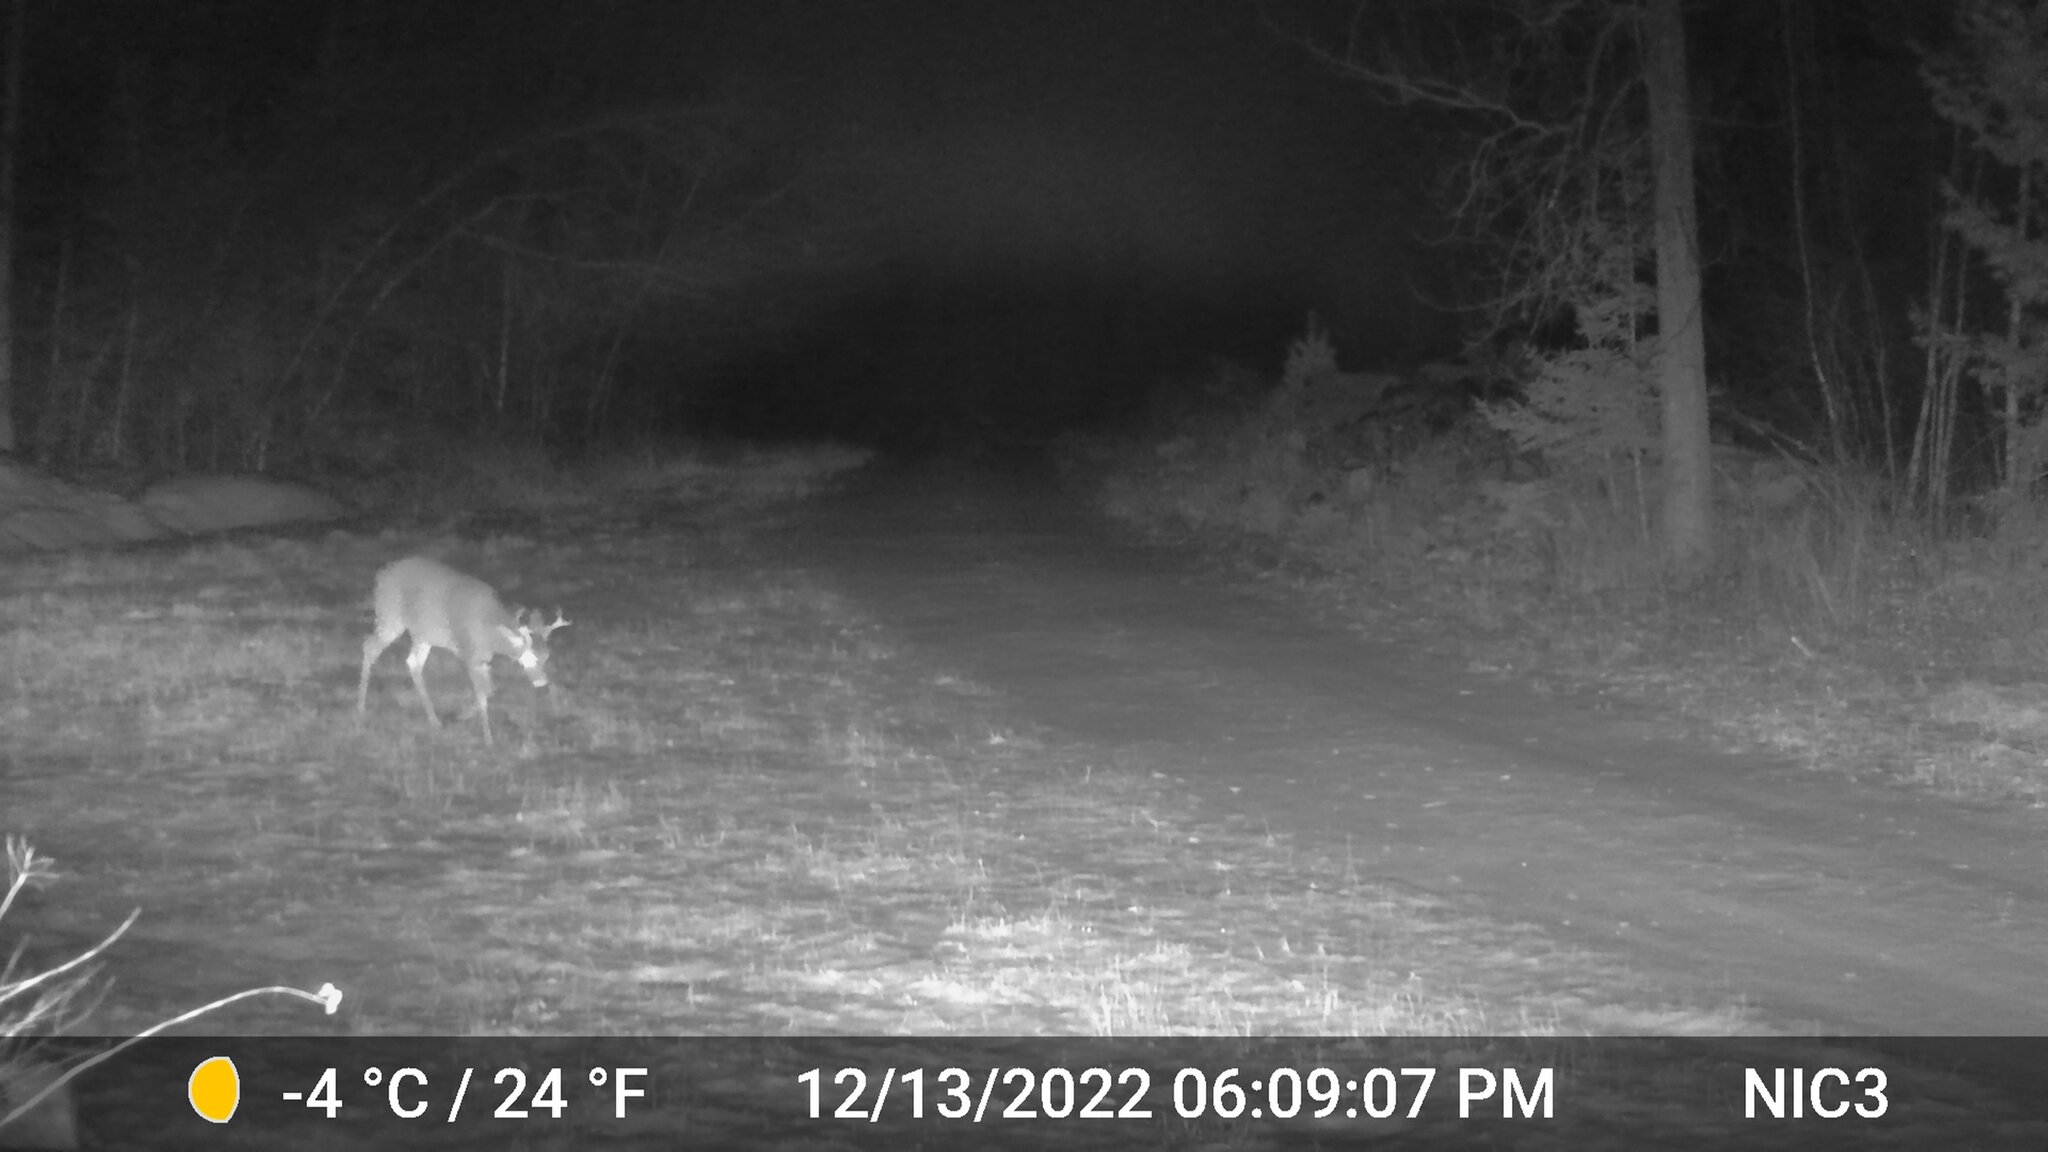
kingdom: Animalia
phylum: Chordata
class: Mammalia
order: Artiodactyla
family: Cervidae
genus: Odocoileus
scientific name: Odocoileus virginianus
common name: White-tailed deer
